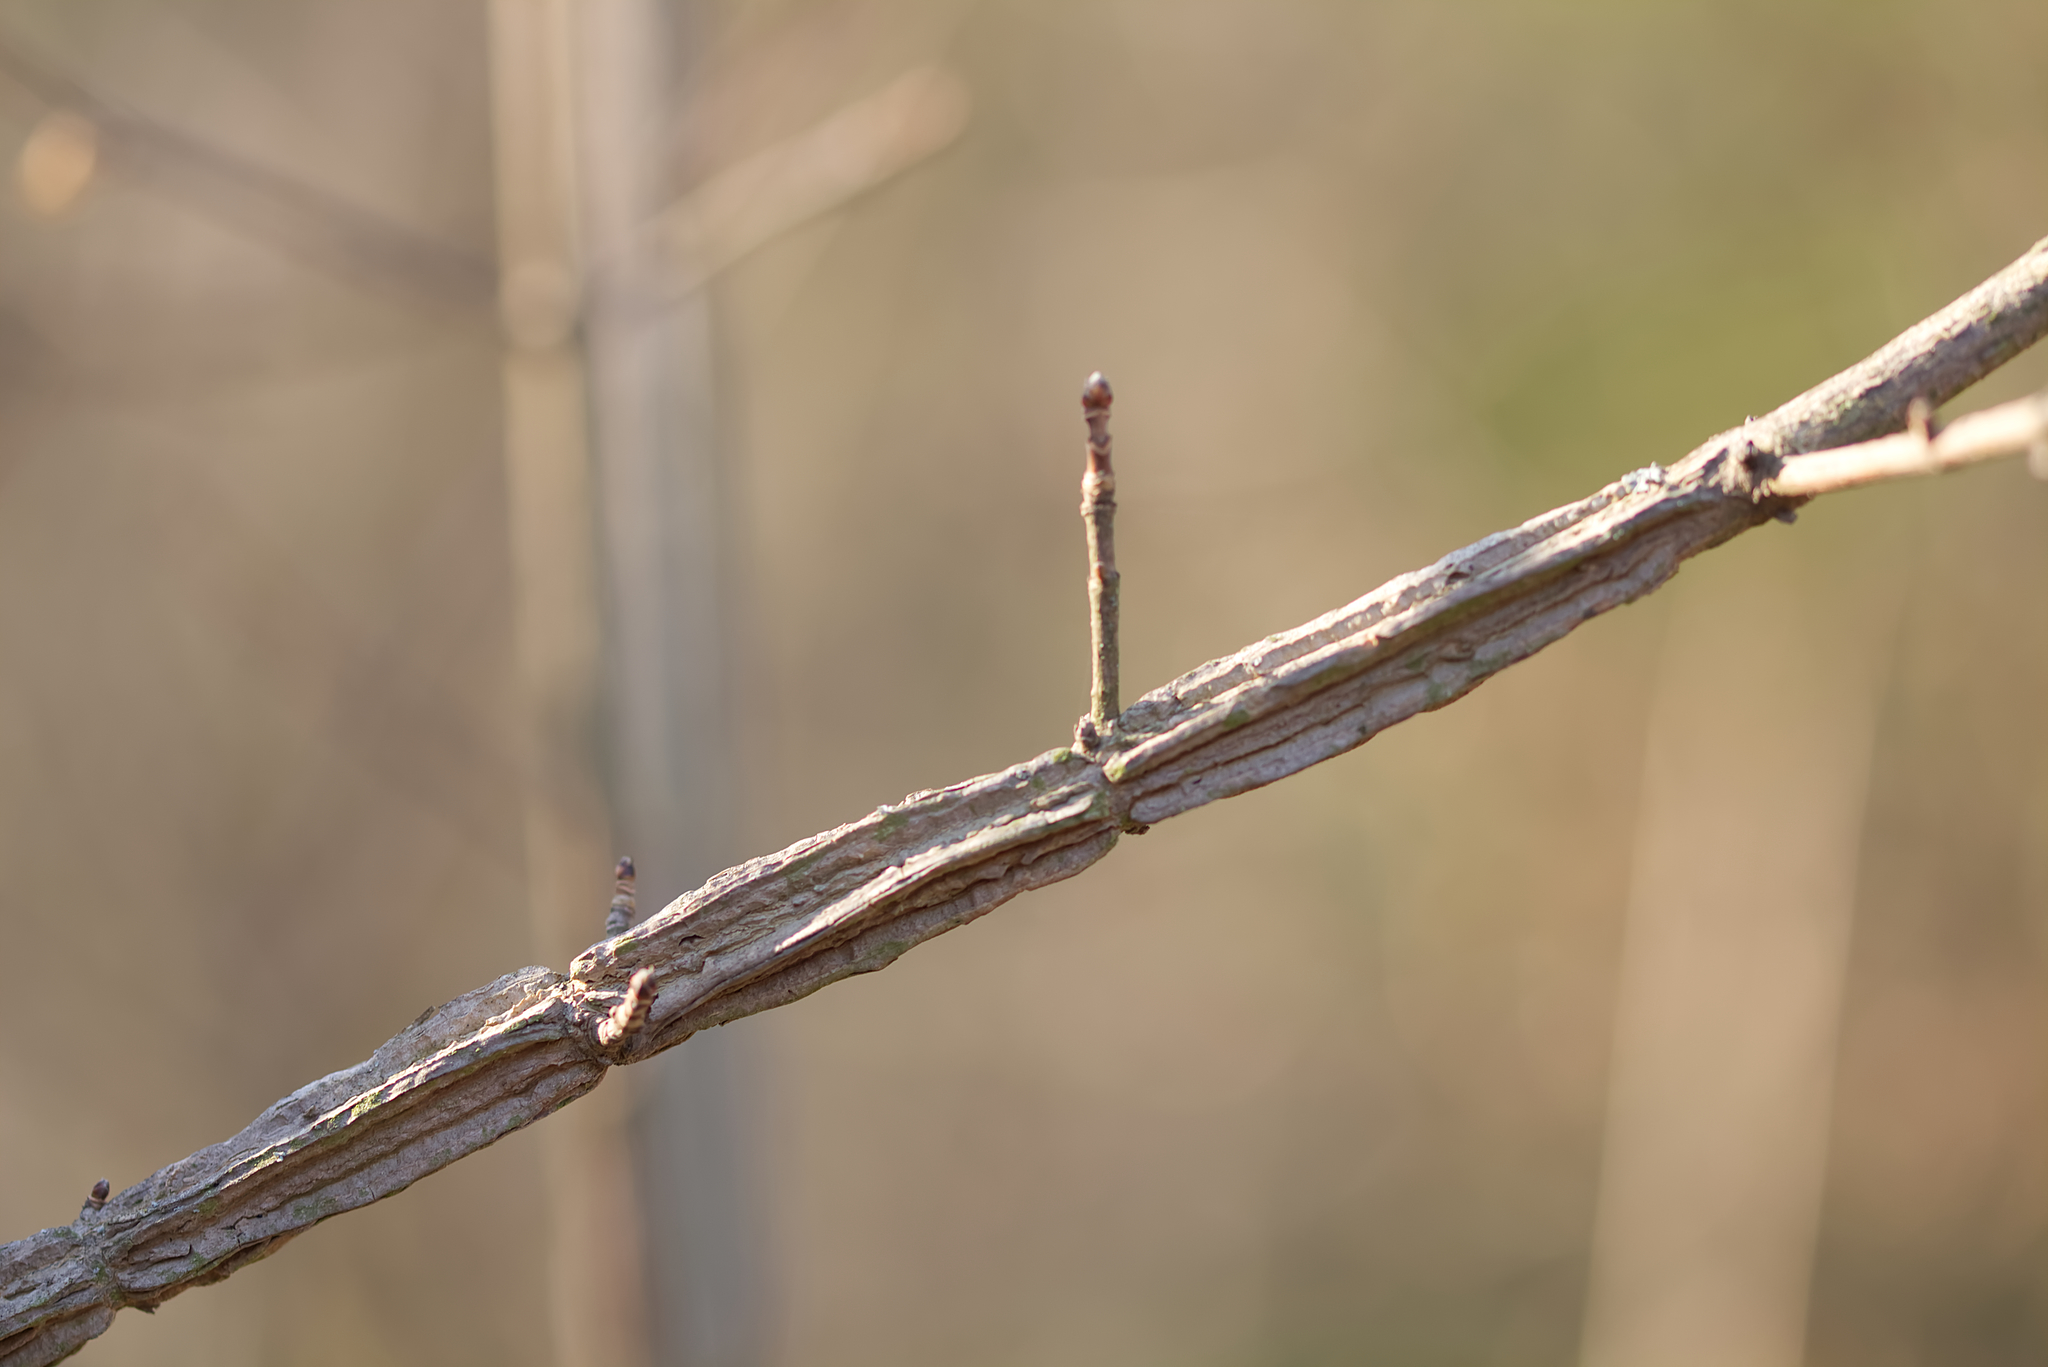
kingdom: Plantae
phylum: Tracheophyta
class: Magnoliopsida
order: Sapindales
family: Sapindaceae
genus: Acer
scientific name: Acer campestre
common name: Field maple
